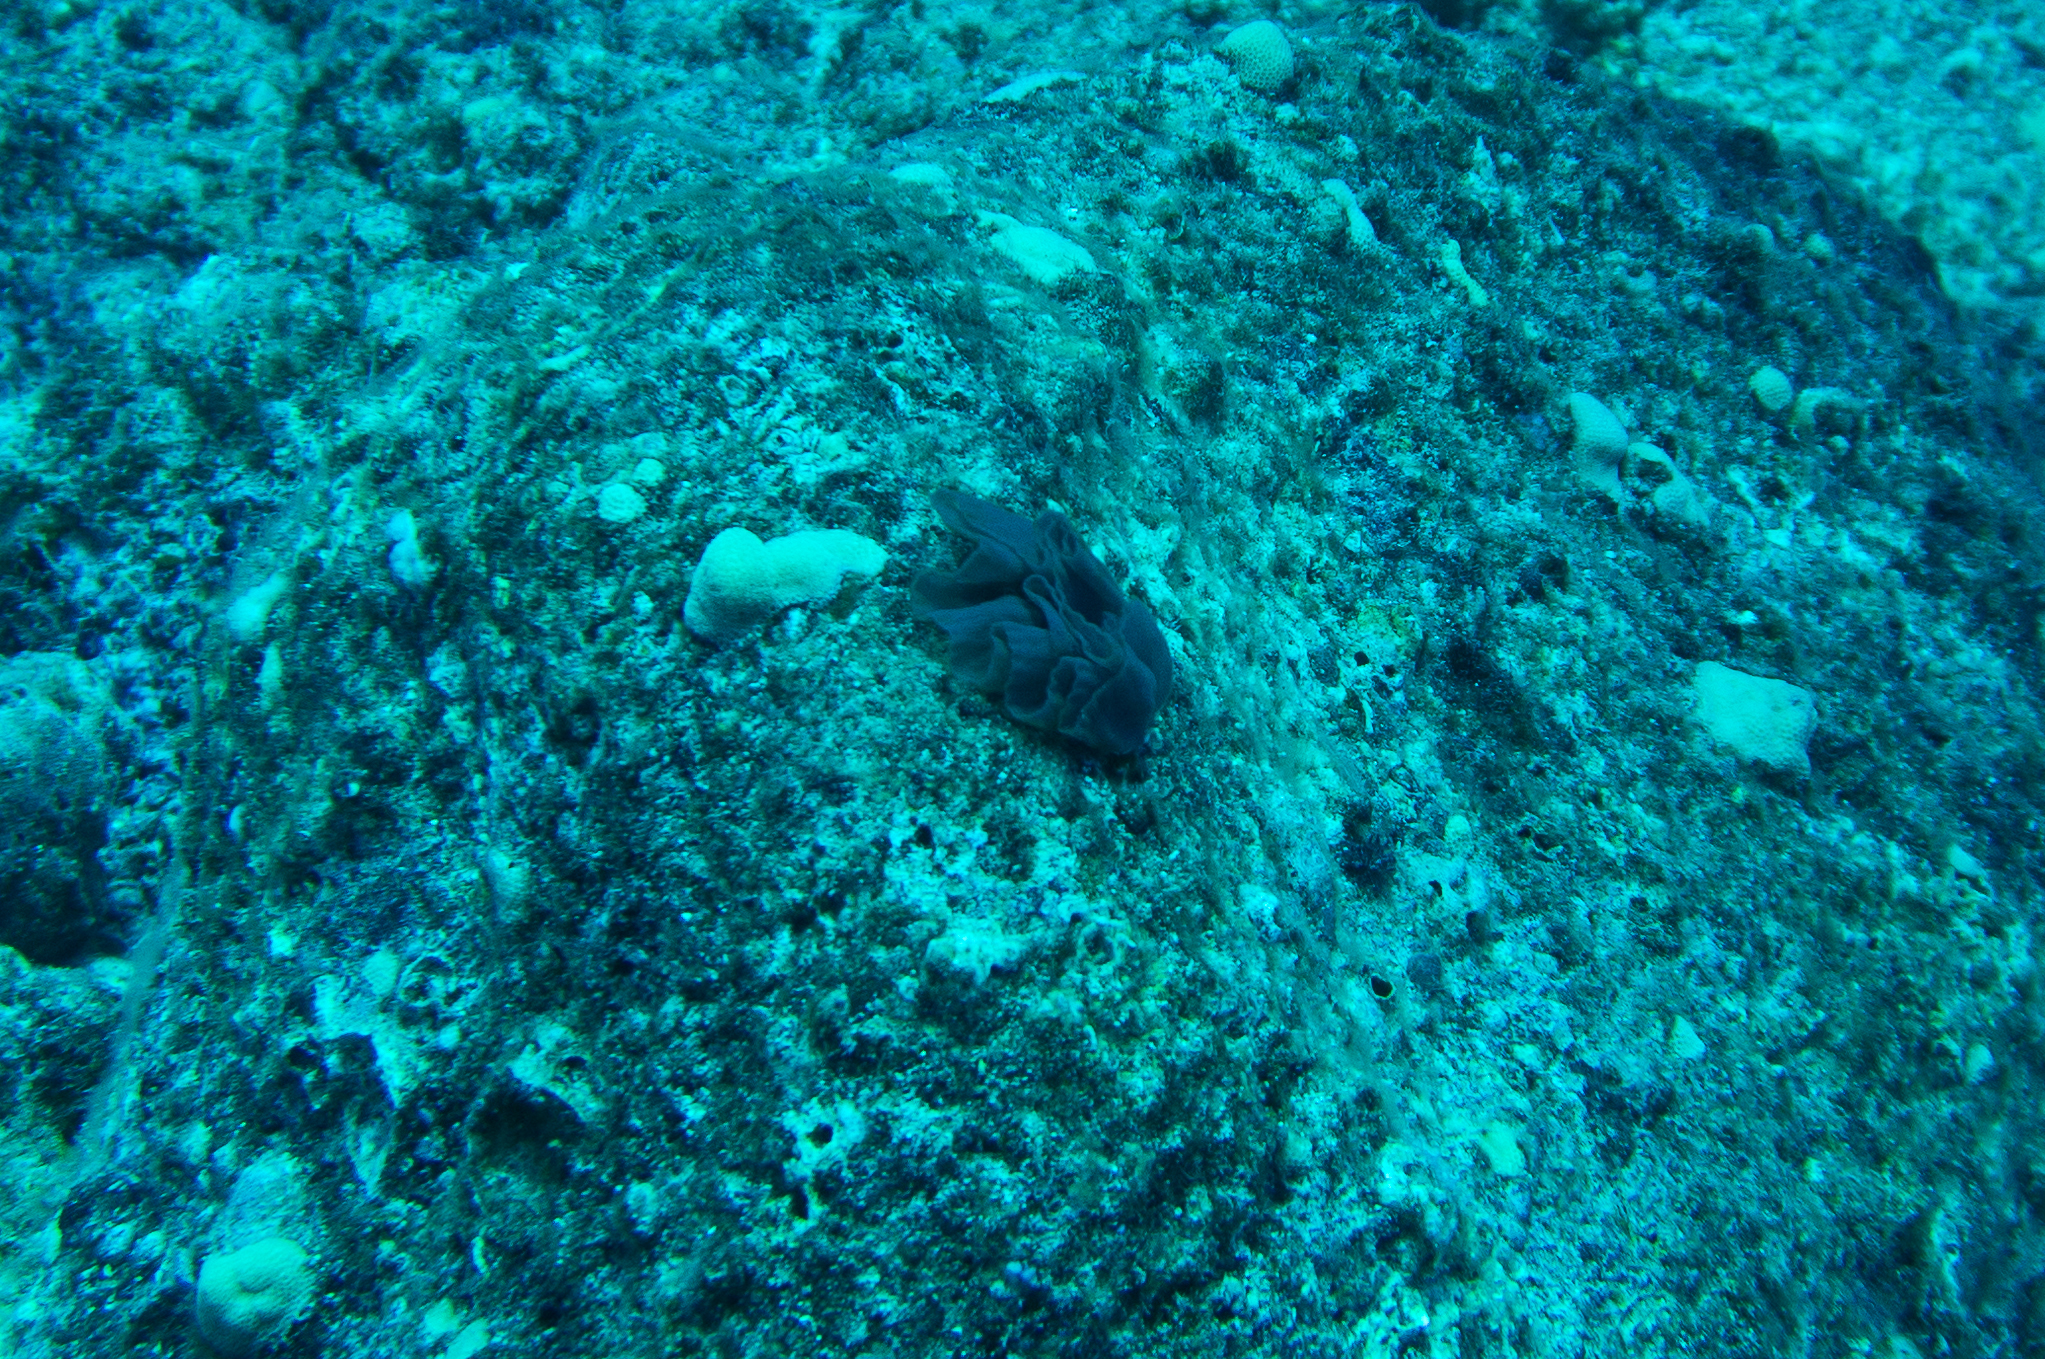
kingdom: Animalia
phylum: Mollusca
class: Gastropoda
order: Nudibranchia
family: Hexabranchidae
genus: Hexabranchus
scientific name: Hexabranchus sandwichensis
